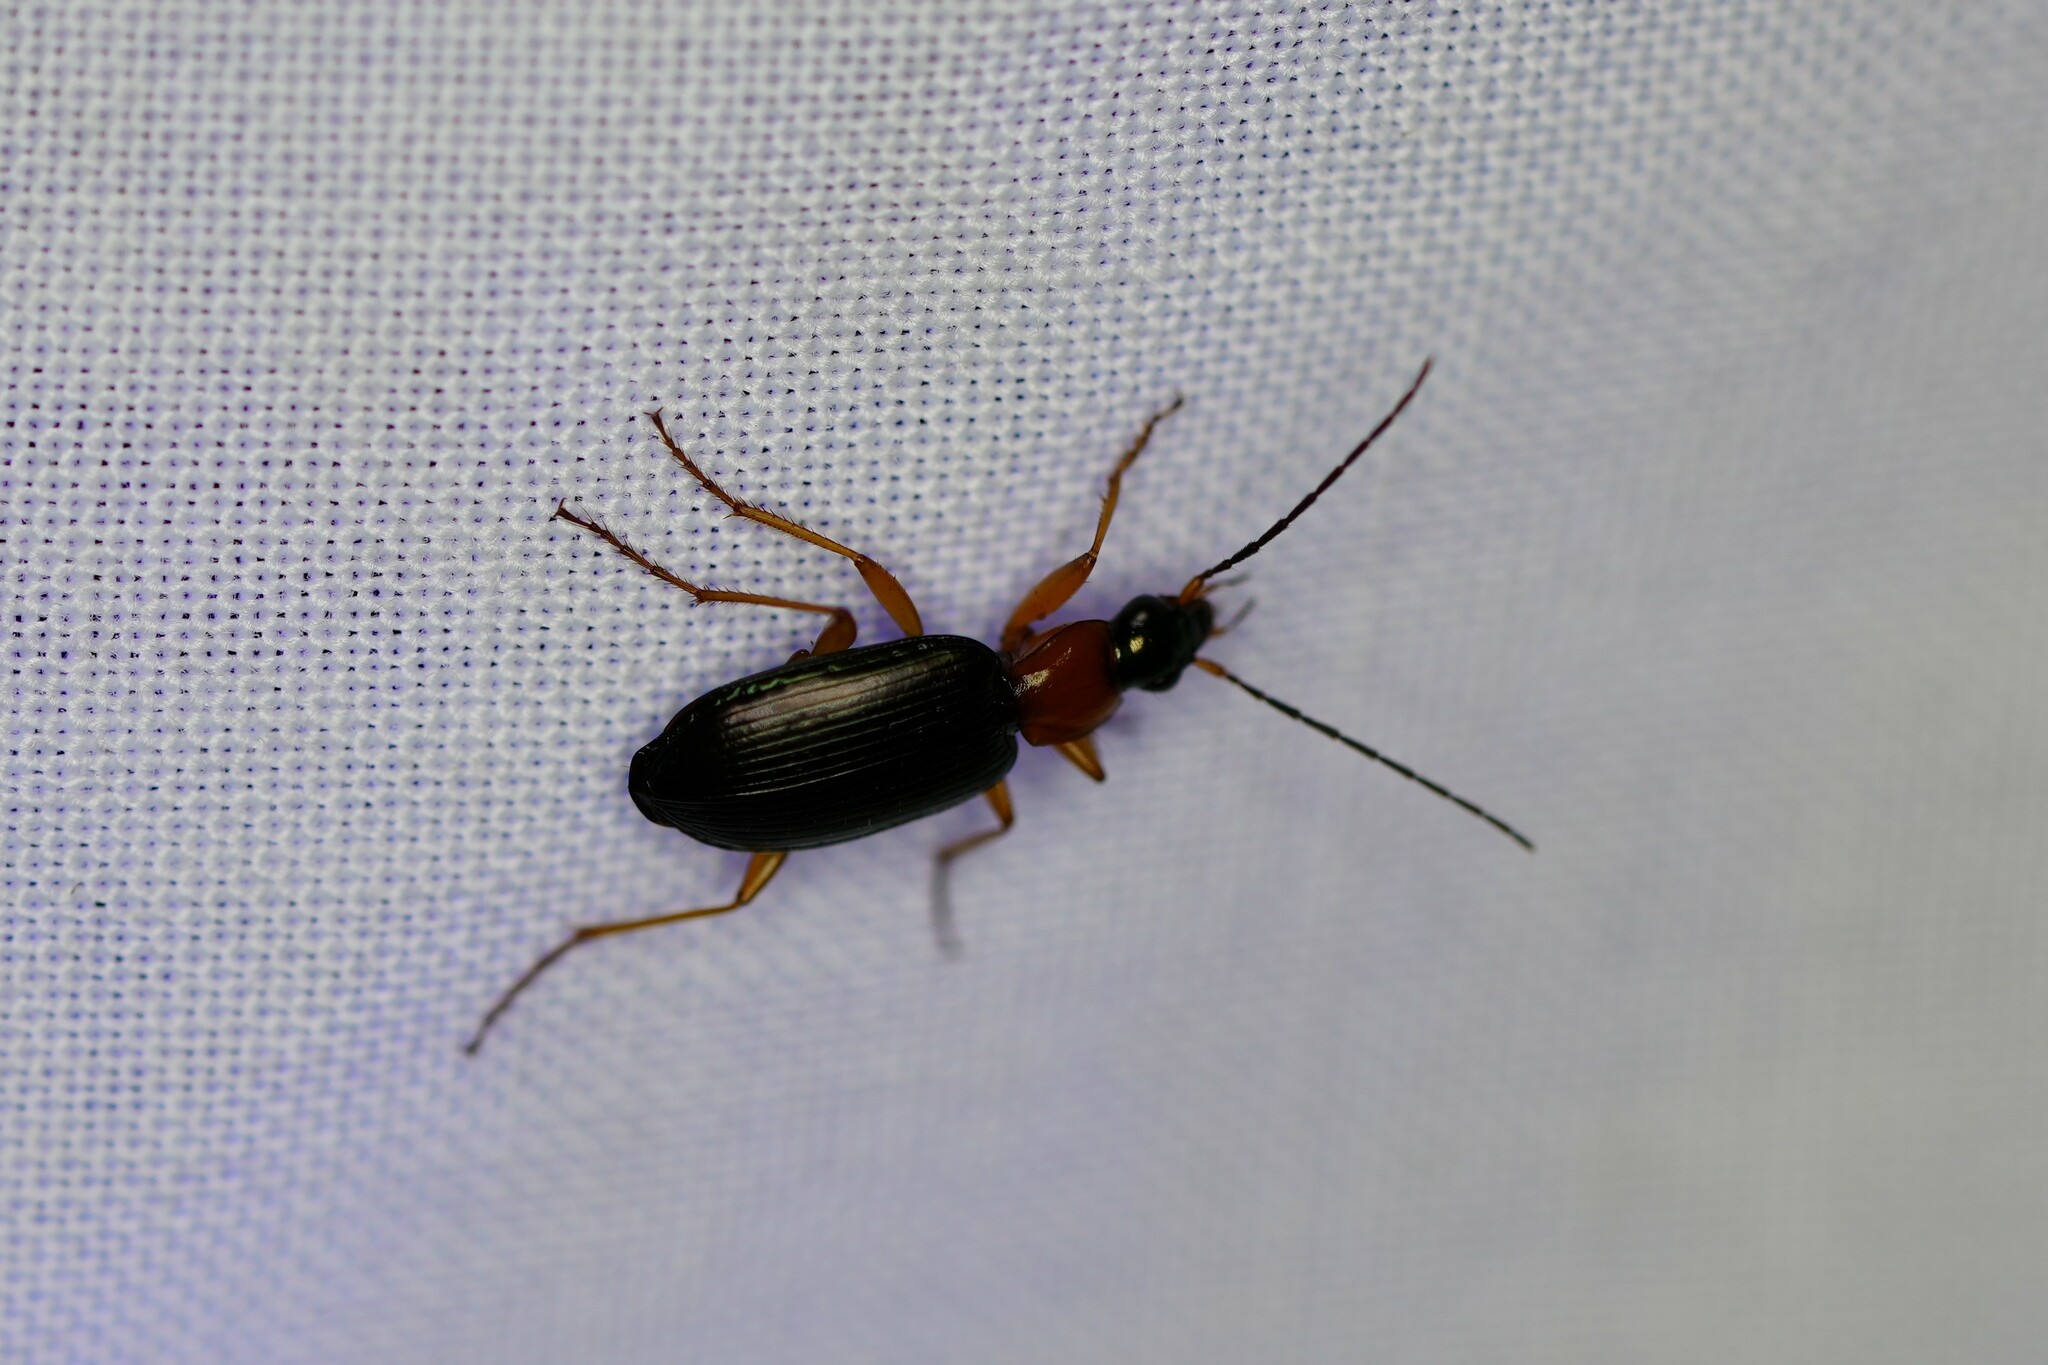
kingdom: Animalia
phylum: Arthropoda
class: Insecta
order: Coleoptera
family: Carabidae
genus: Agonum
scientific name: Agonum decorum
